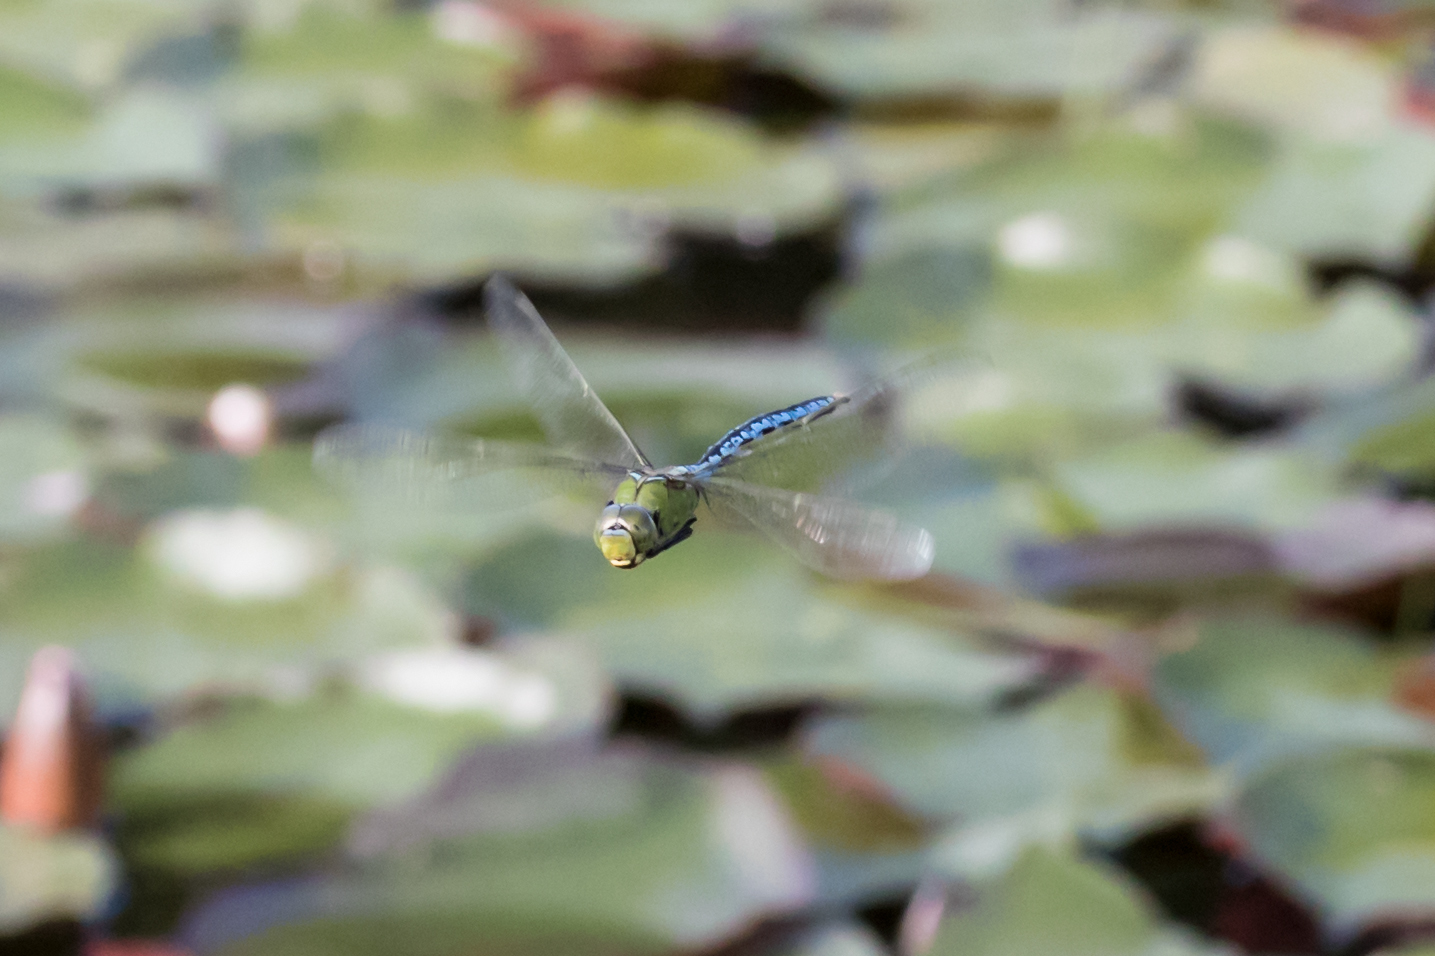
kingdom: Animalia
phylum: Arthropoda
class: Insecta
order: Odonata
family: Aeshnidae
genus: Anax
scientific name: Anax imperator
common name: Emperor dragonfly
